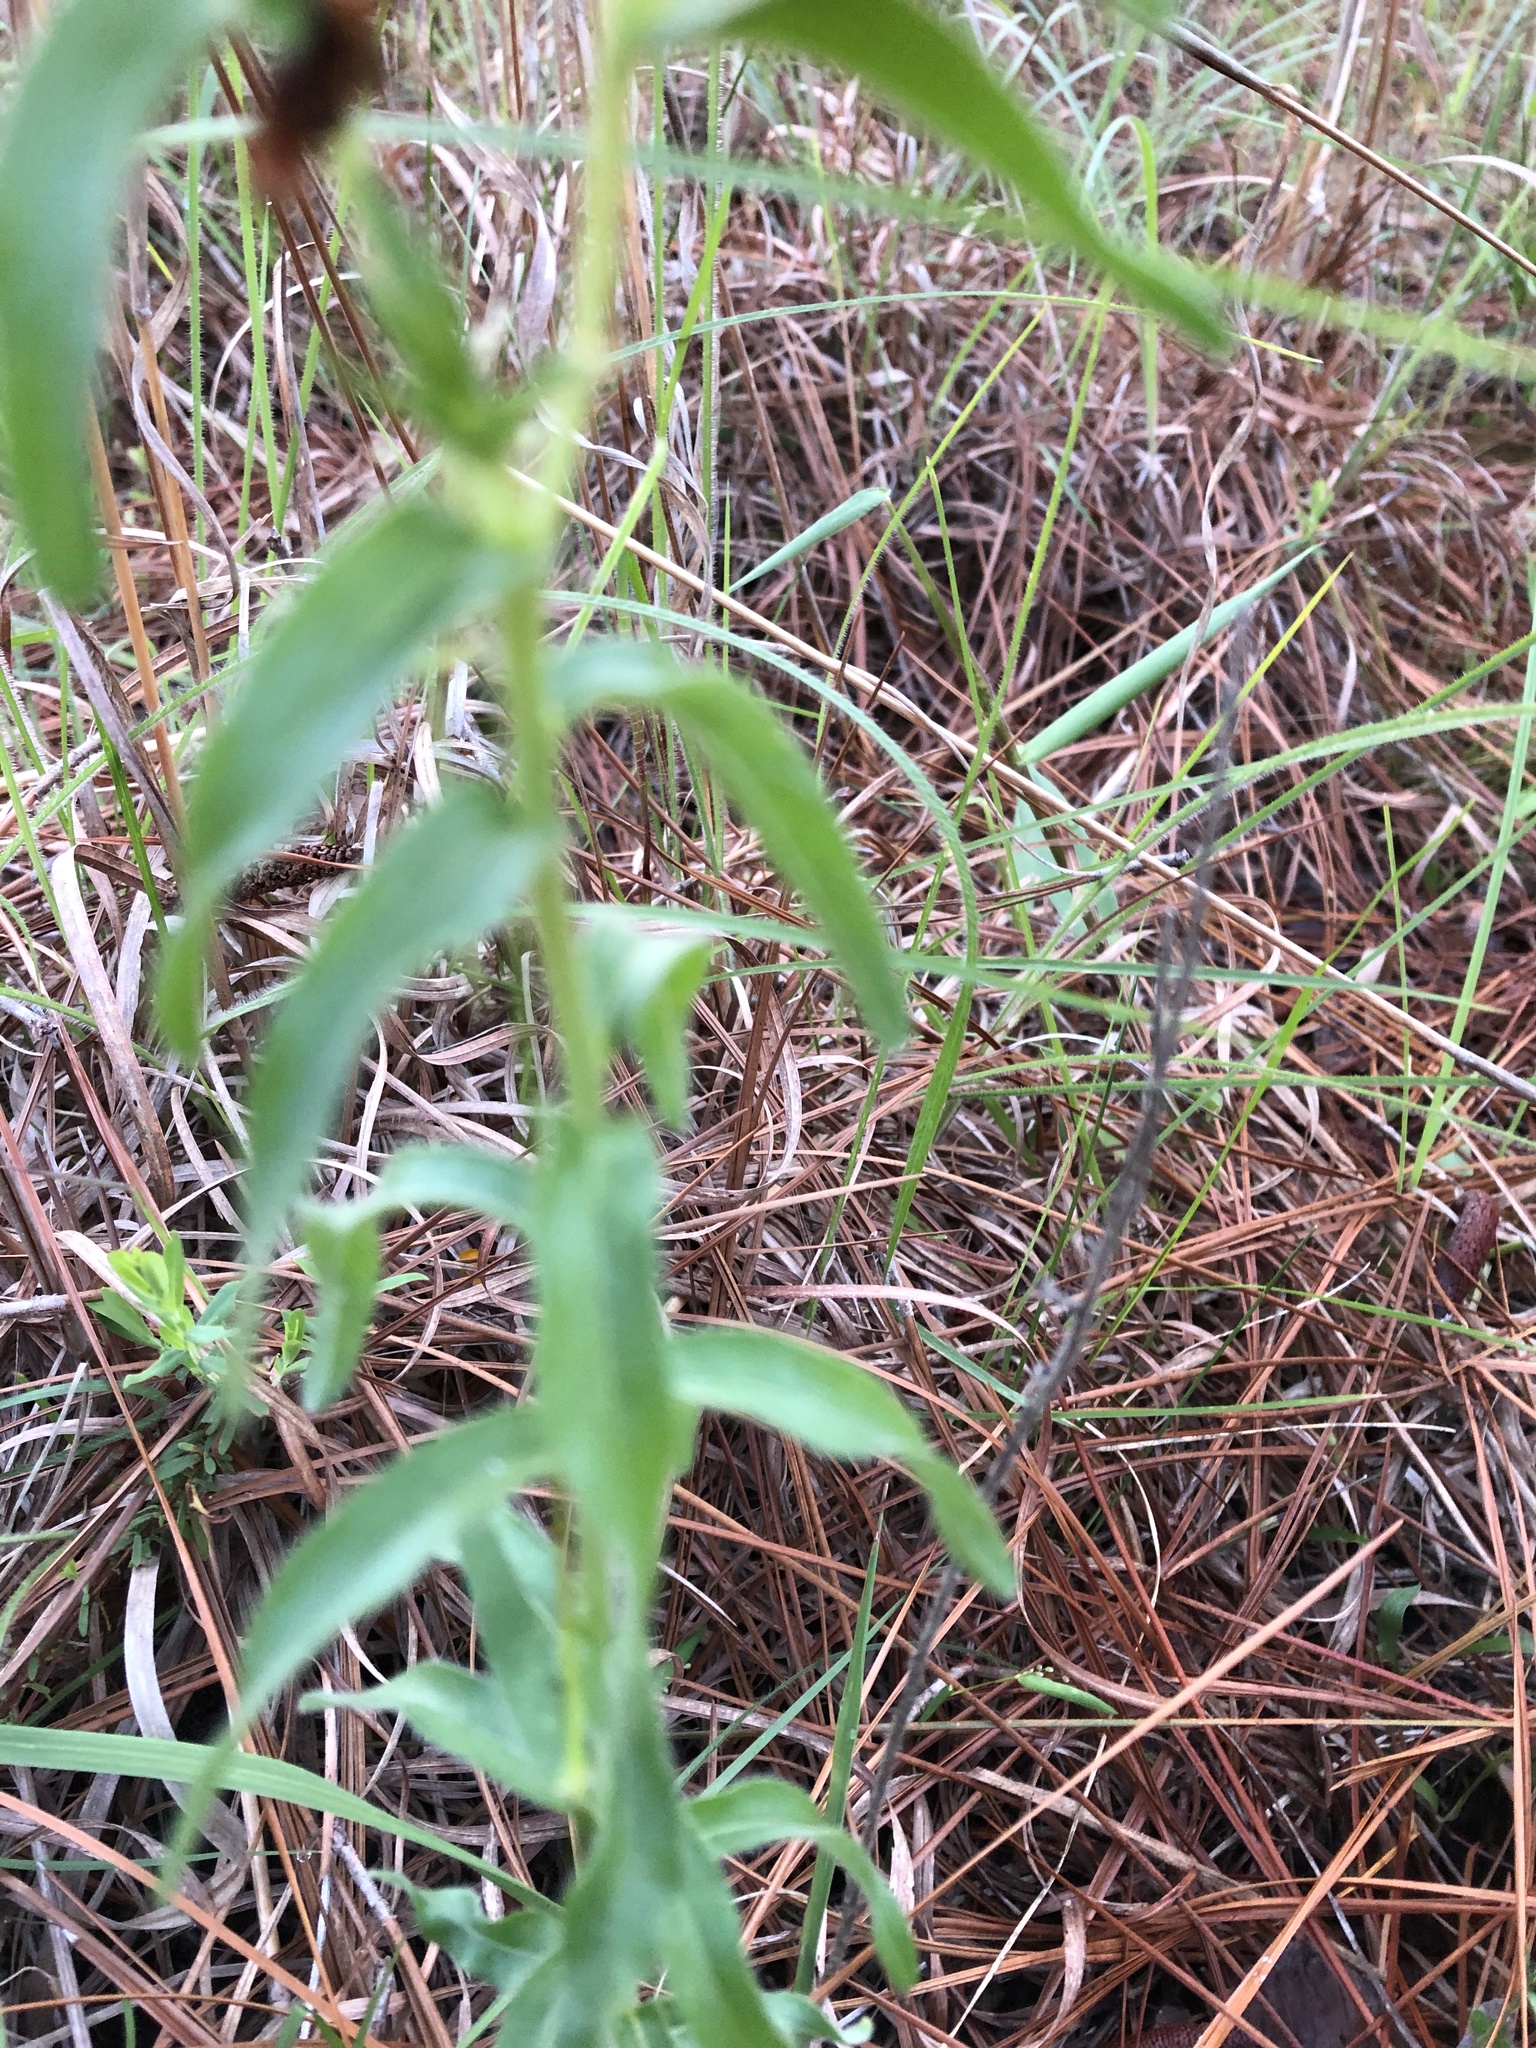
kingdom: Plantae
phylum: Tracheophyta
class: Magnoliopsida
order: Boraginales
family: Boraginaceae
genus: Lithospermum
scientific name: Lithospermum caroliniense
